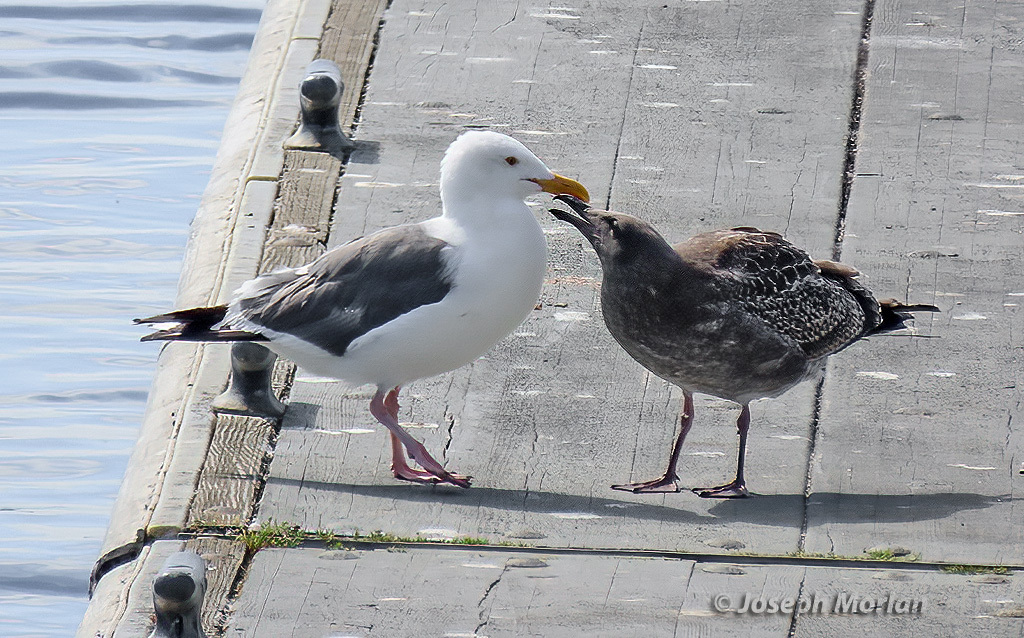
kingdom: Animalia
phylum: Chordata
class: Aves
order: Charadriiformes
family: Laridae
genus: Larus
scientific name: Larus occidentalis
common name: Western gull
